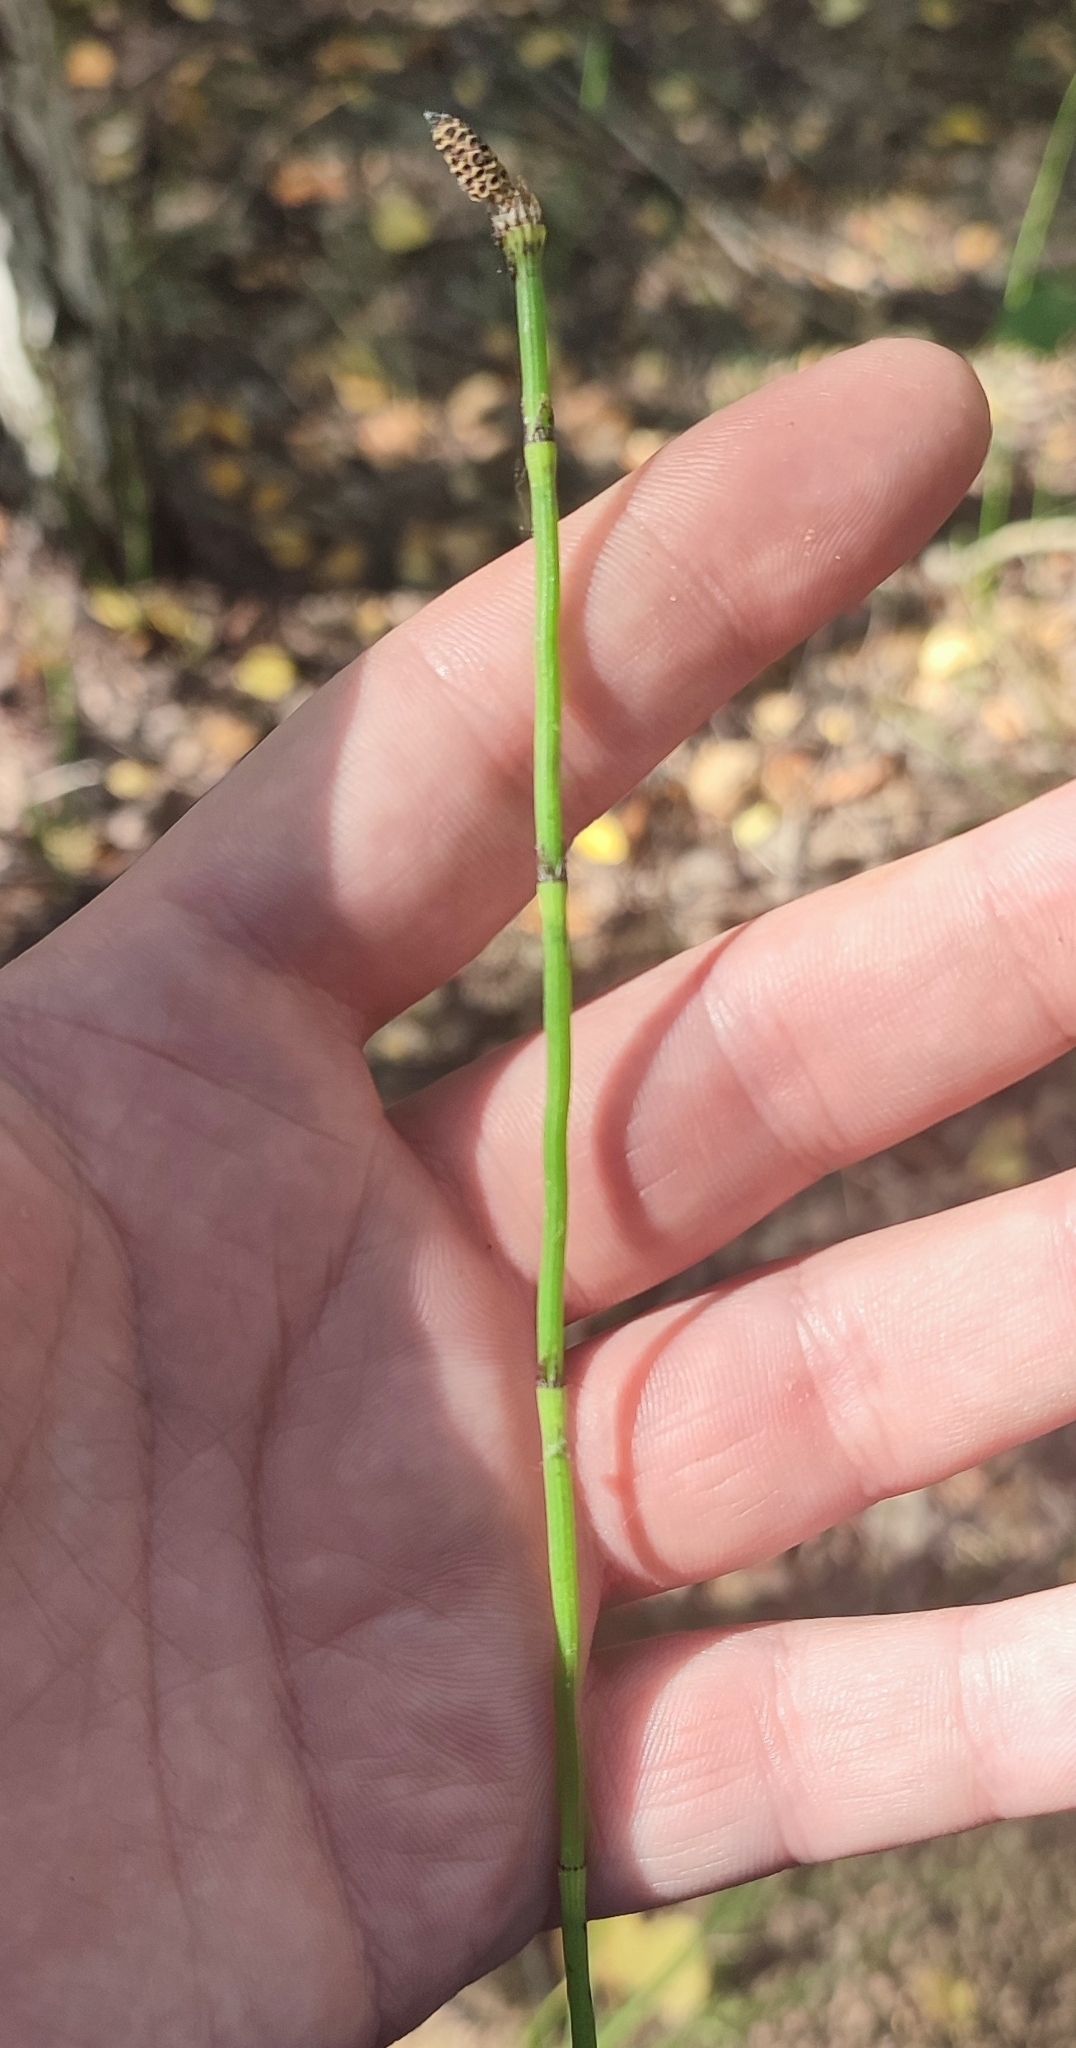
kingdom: Plantae
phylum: Tracheophyta
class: Polypodiopsida
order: Equisetales
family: Equisetaceae
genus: Equisetum
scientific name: Equisetum hyemale
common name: Rough horsetail
